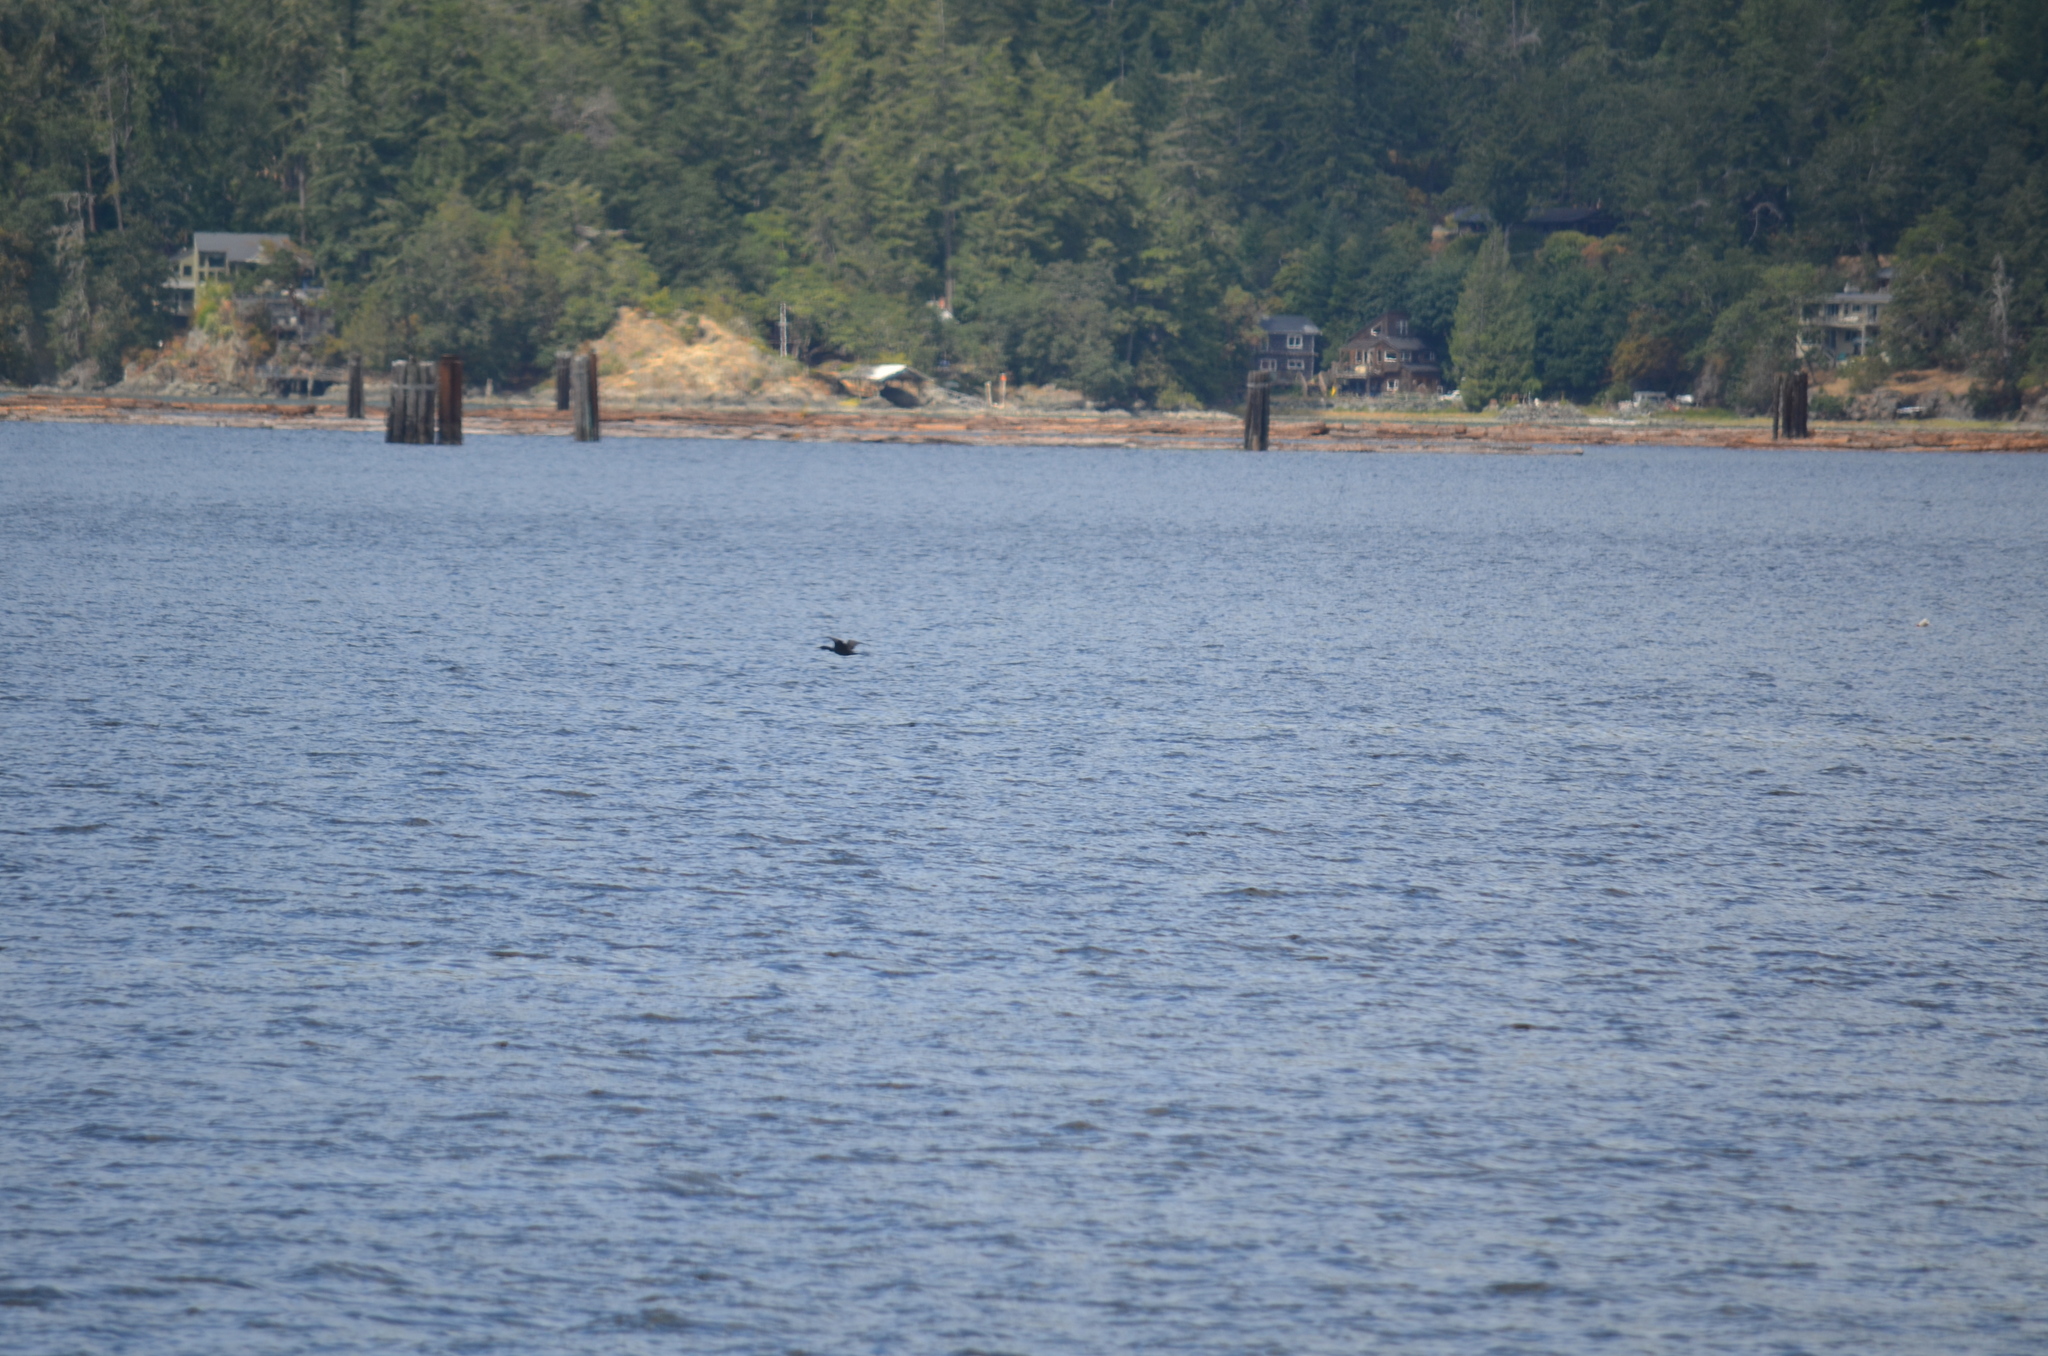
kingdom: Animalia
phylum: Chordata
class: Aves
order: Suliformes
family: Phalacrocoracidae
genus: Phalacrocorax
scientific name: Phalacrocorax auritus
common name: Double-crested cormorant
